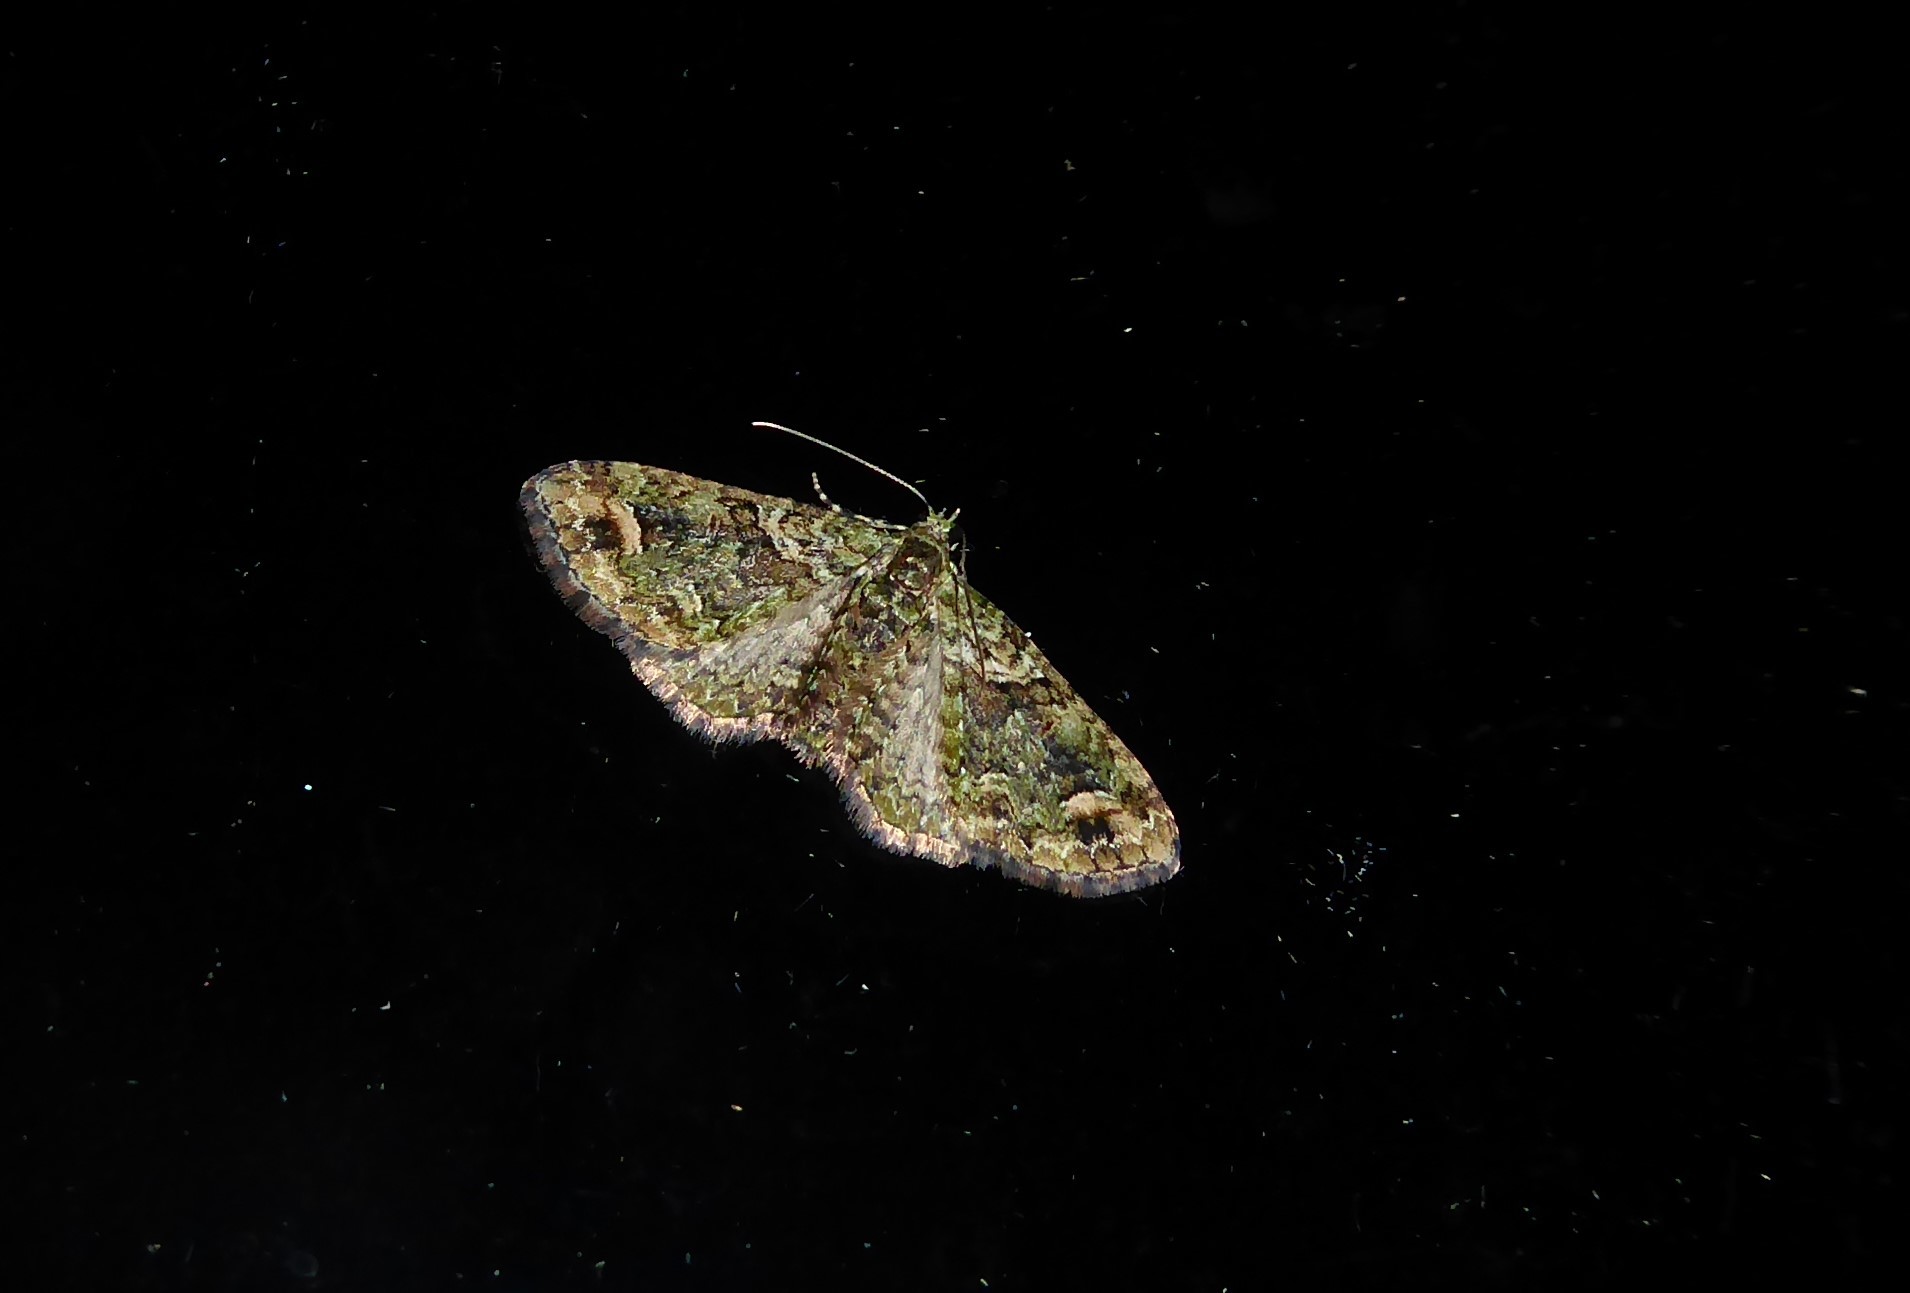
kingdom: Animalia
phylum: Arthropoda
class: Insecta
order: Lepidoptera
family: Geometridae
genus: Idaea
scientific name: Idaea mutanda
